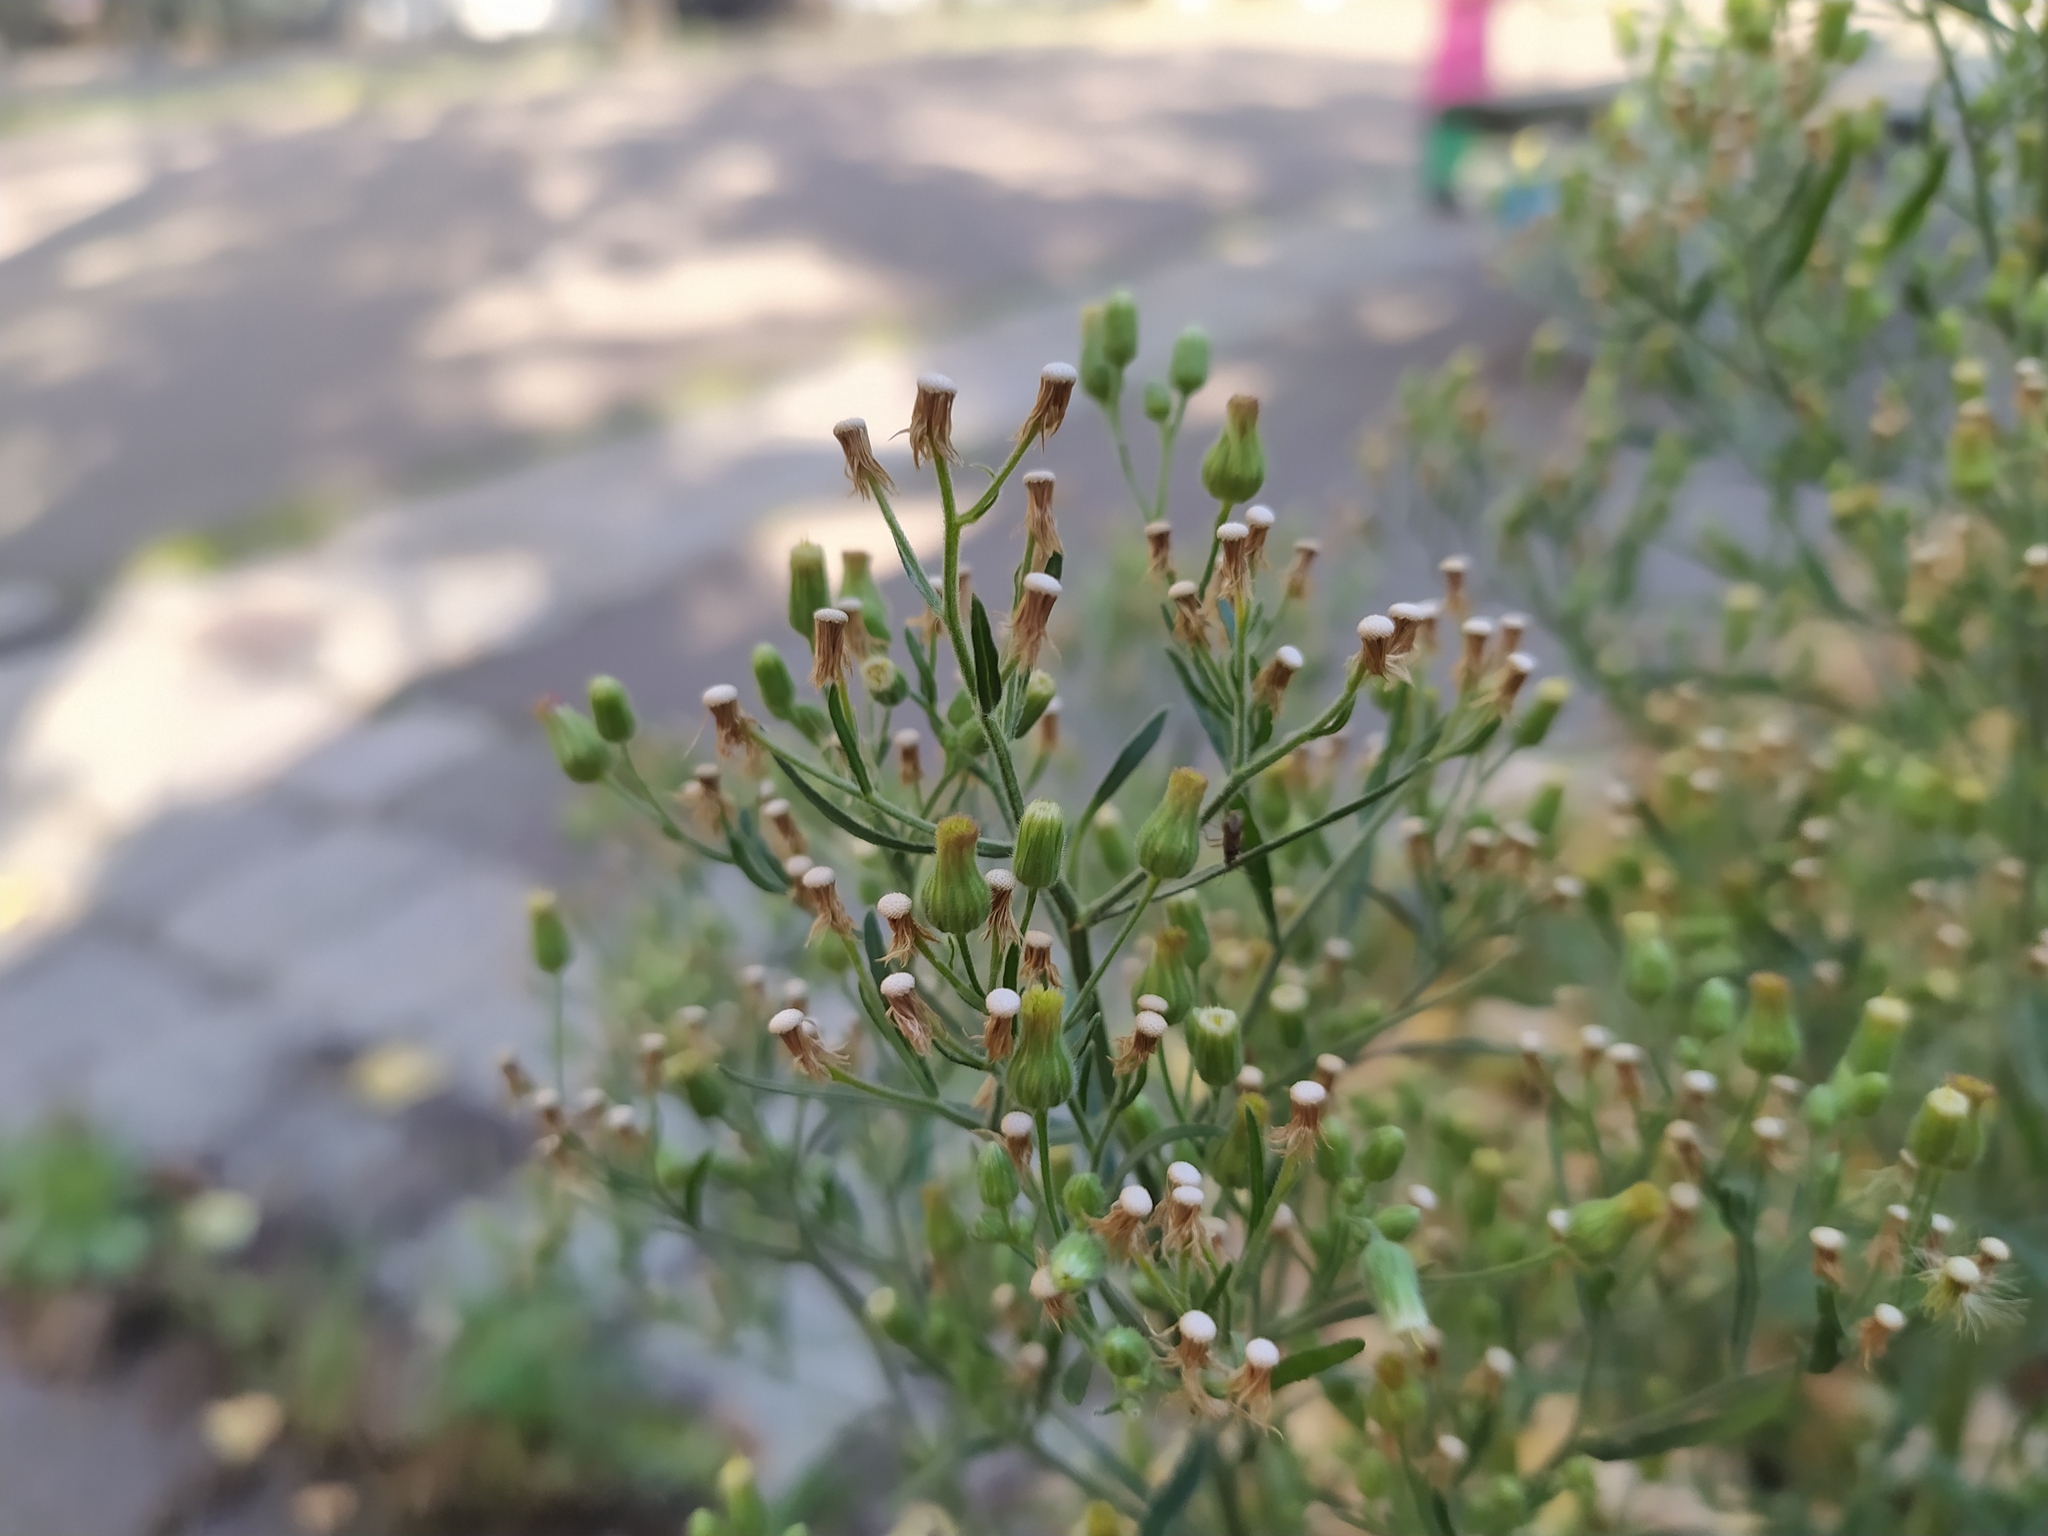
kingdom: Plantae
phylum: Tracheophyta
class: Magnoliopsida
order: Asterales
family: Asteraceae
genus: Erigeron
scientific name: Erigeron sumatrensis
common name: Daisy
